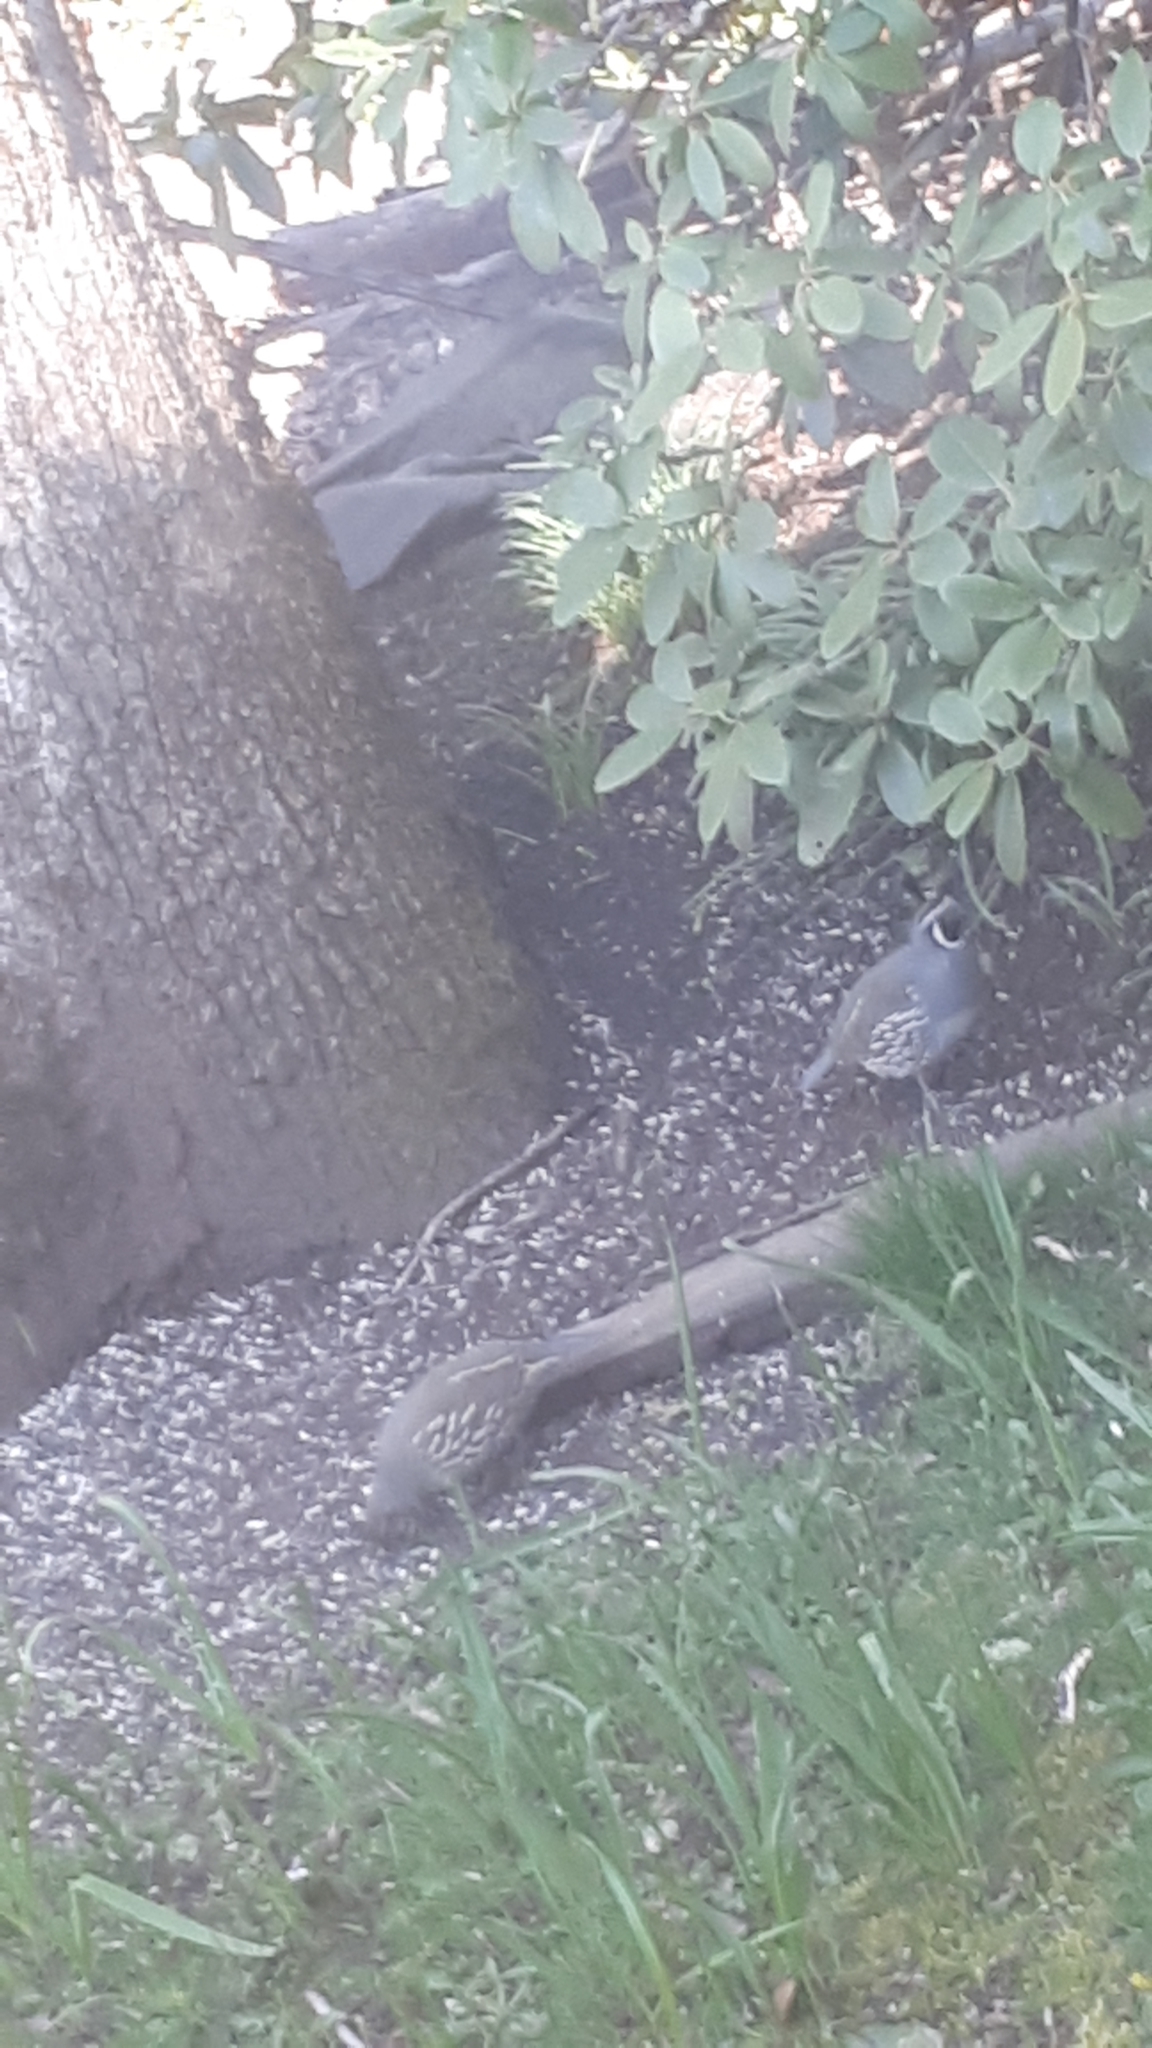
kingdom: Animalia
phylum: Chordata
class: Aves
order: Galliformes
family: Odontophoridae
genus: Callipepla
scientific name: Callipepla californica
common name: California quail
